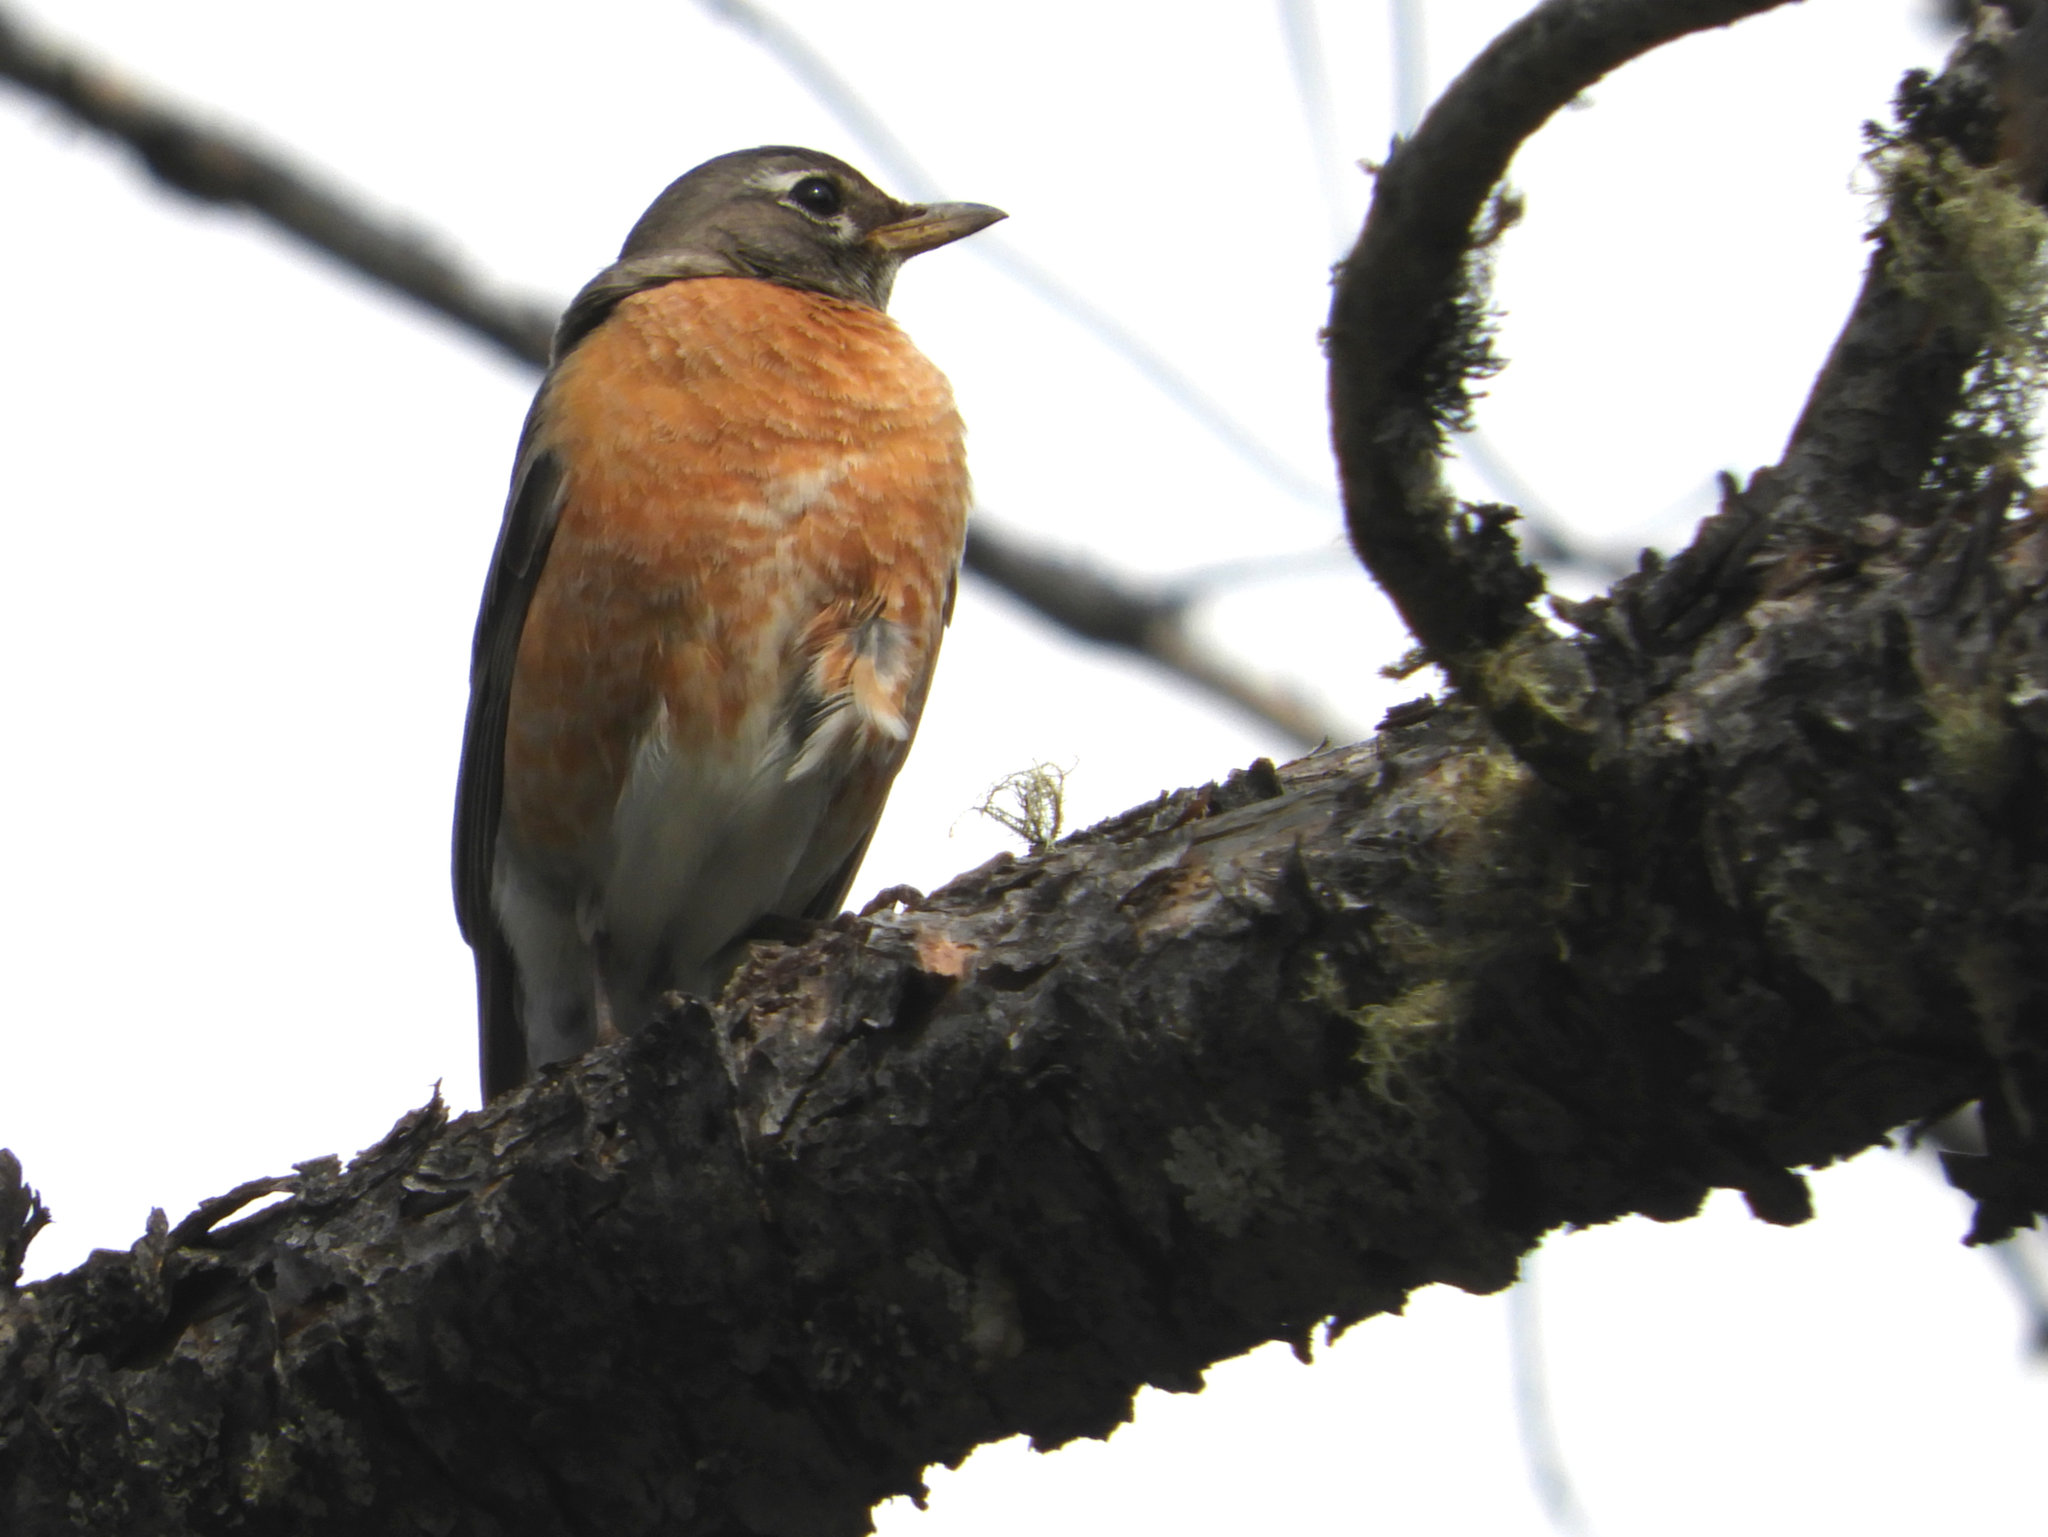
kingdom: Animalia
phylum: Chordata
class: Aves
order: Passeriformes
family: Turdidae
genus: Turdus
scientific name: Turdus migratorius
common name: American robin
